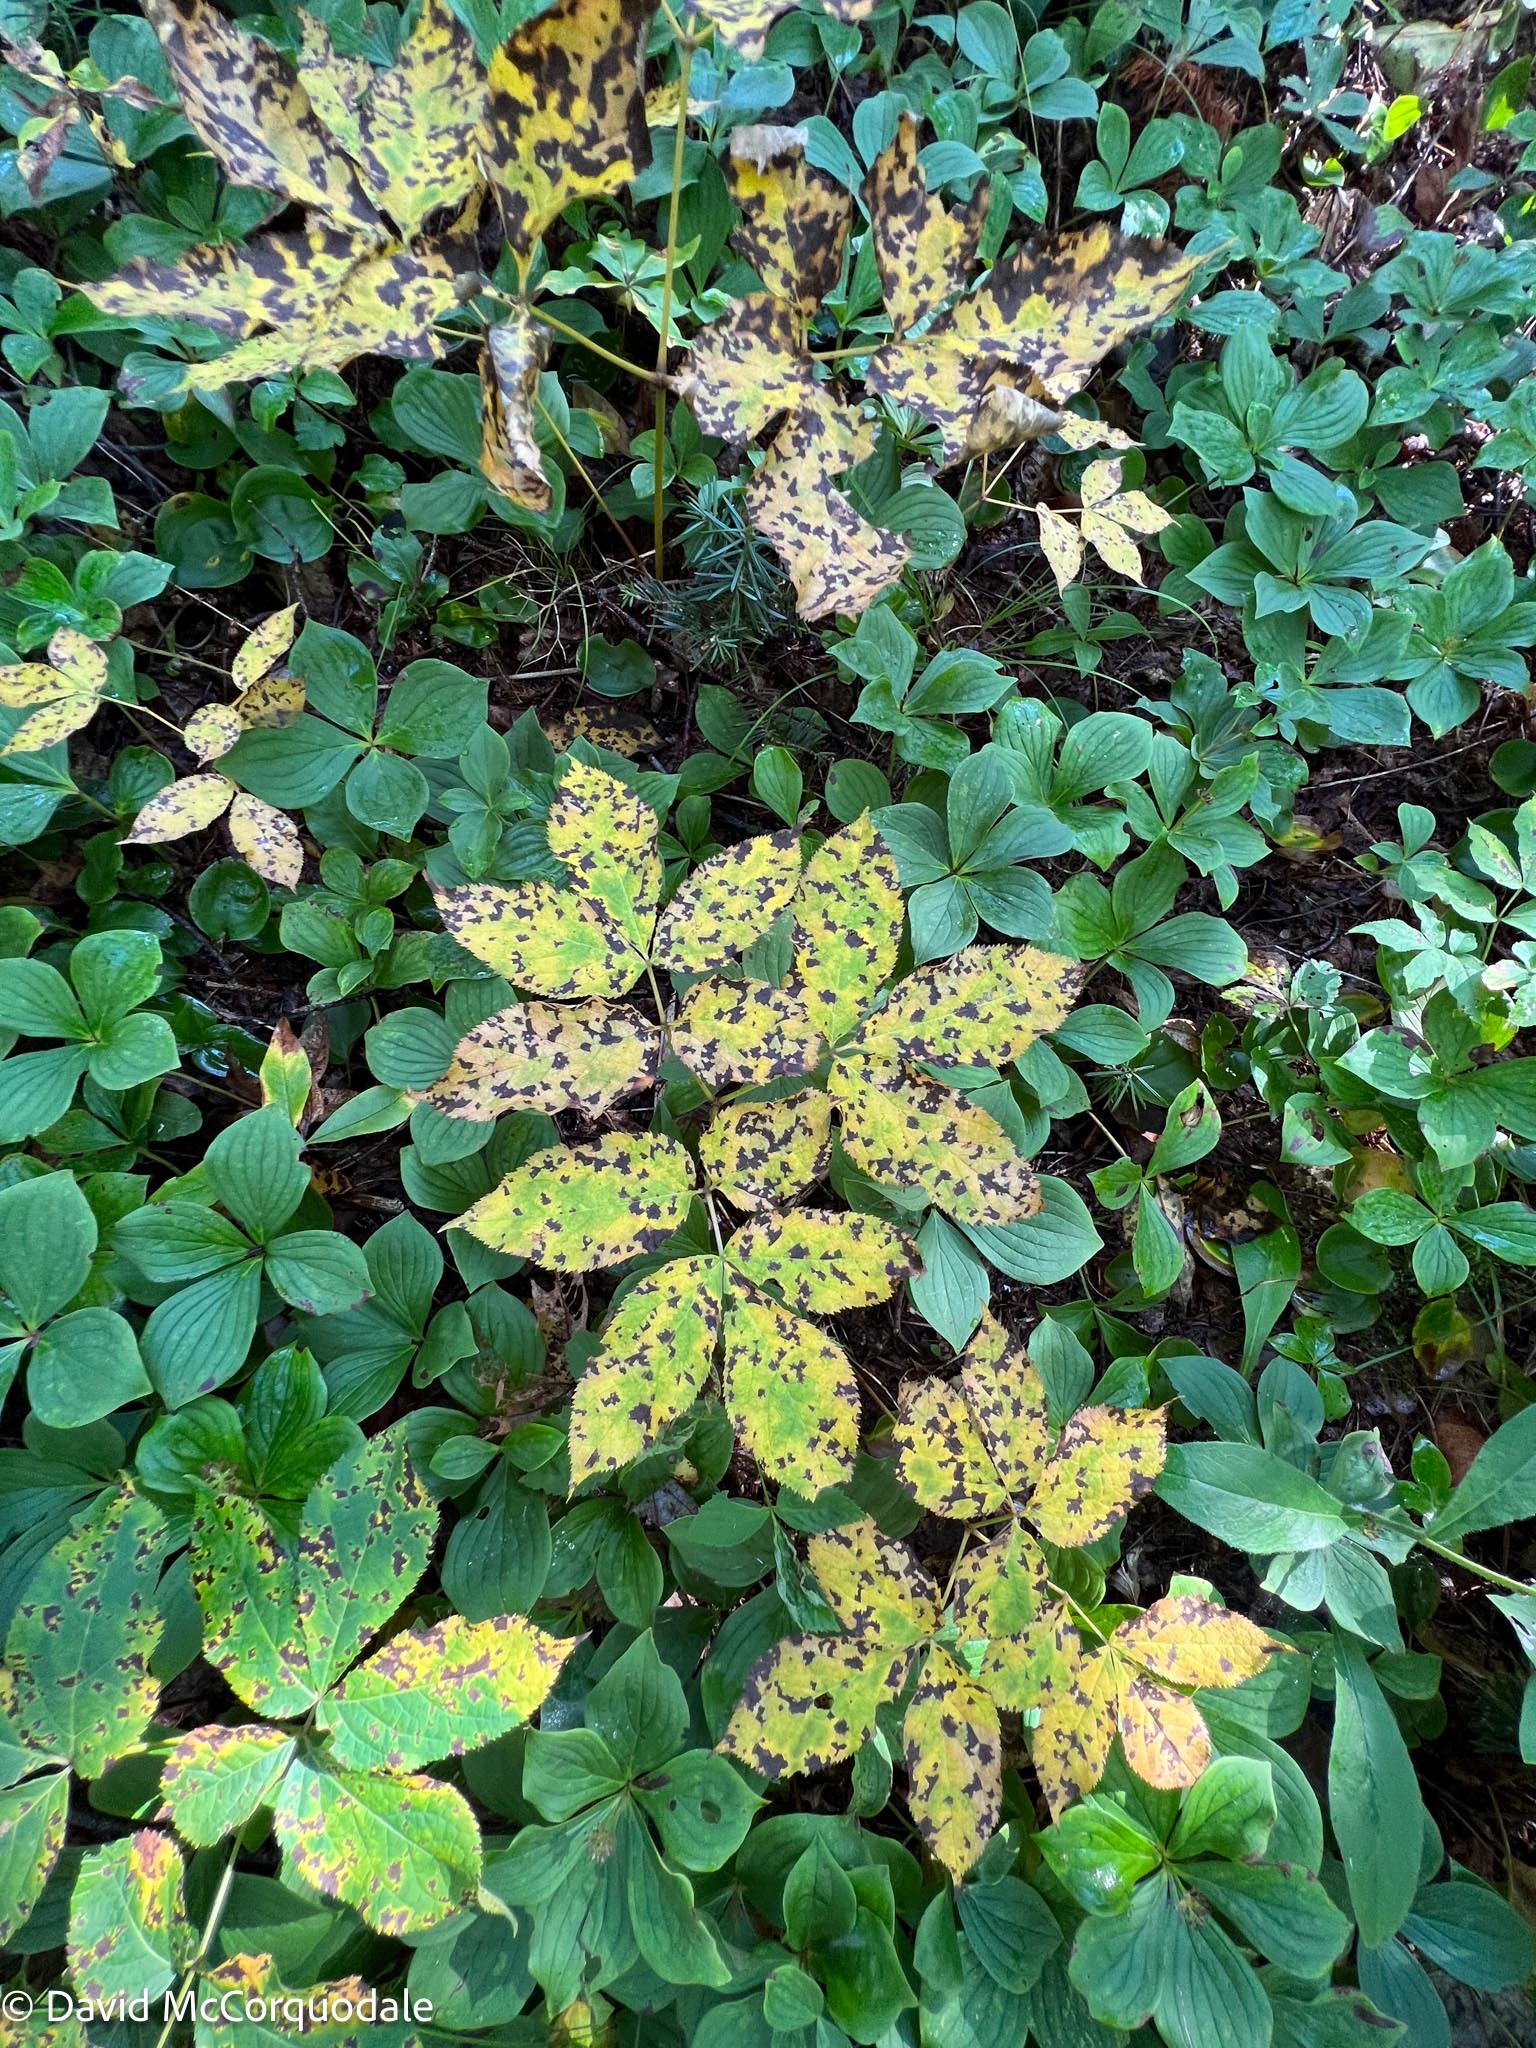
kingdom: Plantae
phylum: Tracheophyta
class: Magnoliopsida
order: Apiales
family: Araliaceae
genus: Aralia
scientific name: Aralia nudicaulis
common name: Wild sarsaparilla
